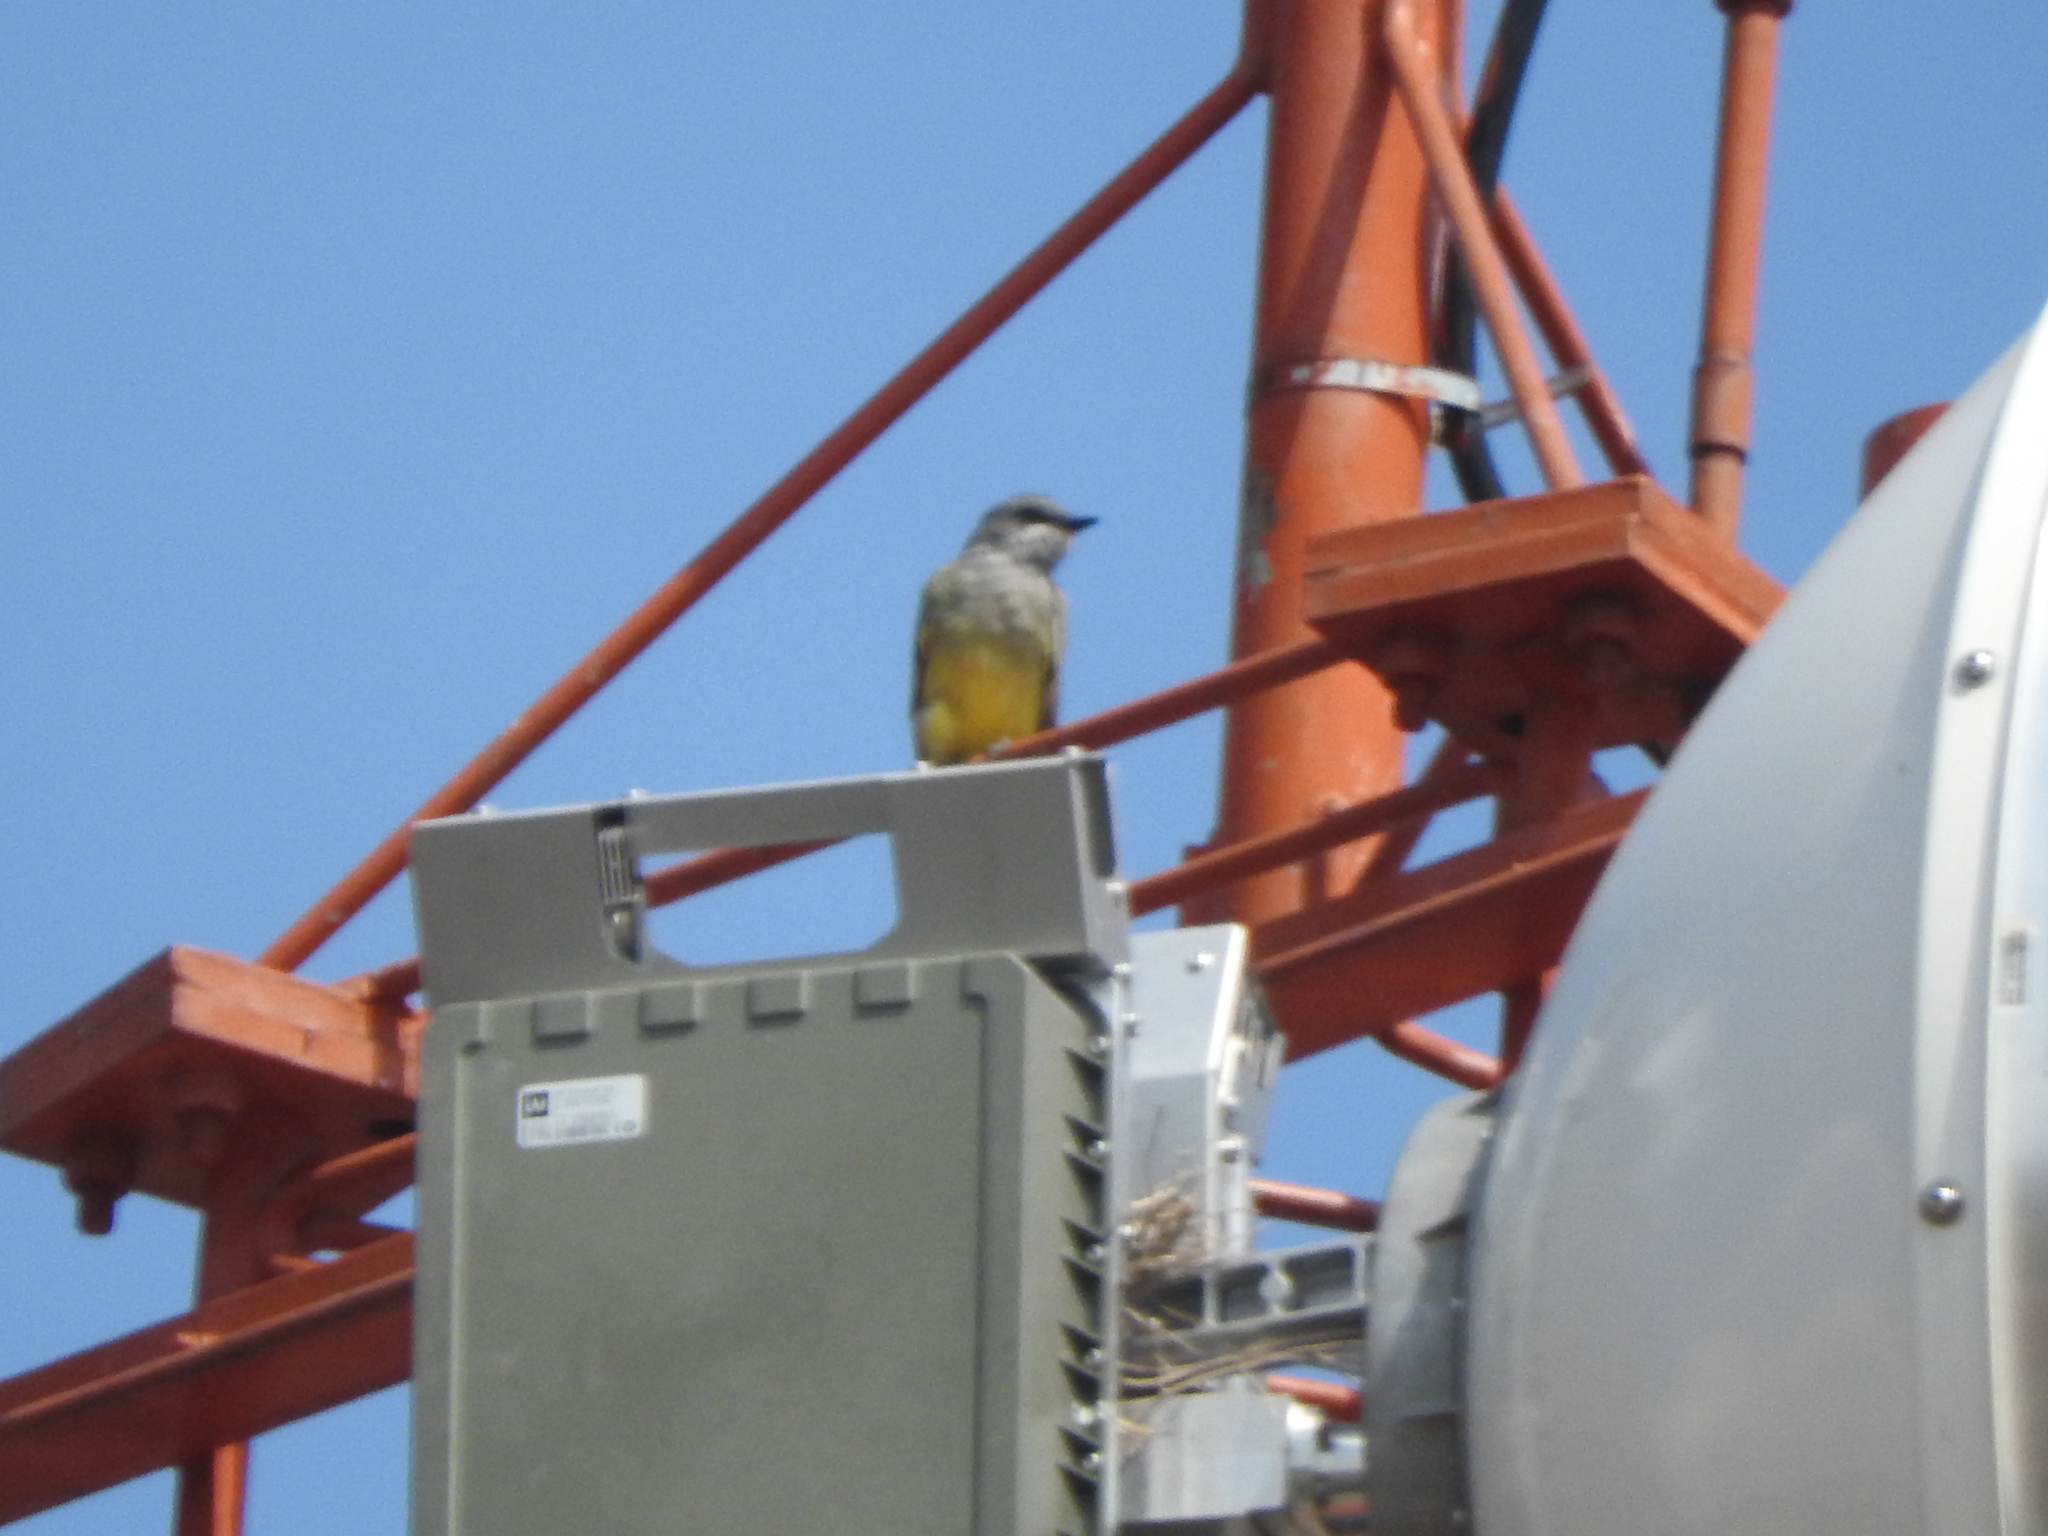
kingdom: Animalia
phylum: Chordata
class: Aves
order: Passeriformes
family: Tyrannidae
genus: Tyrannus
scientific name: Tyrannus vociferans
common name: Cassin's kingbird
